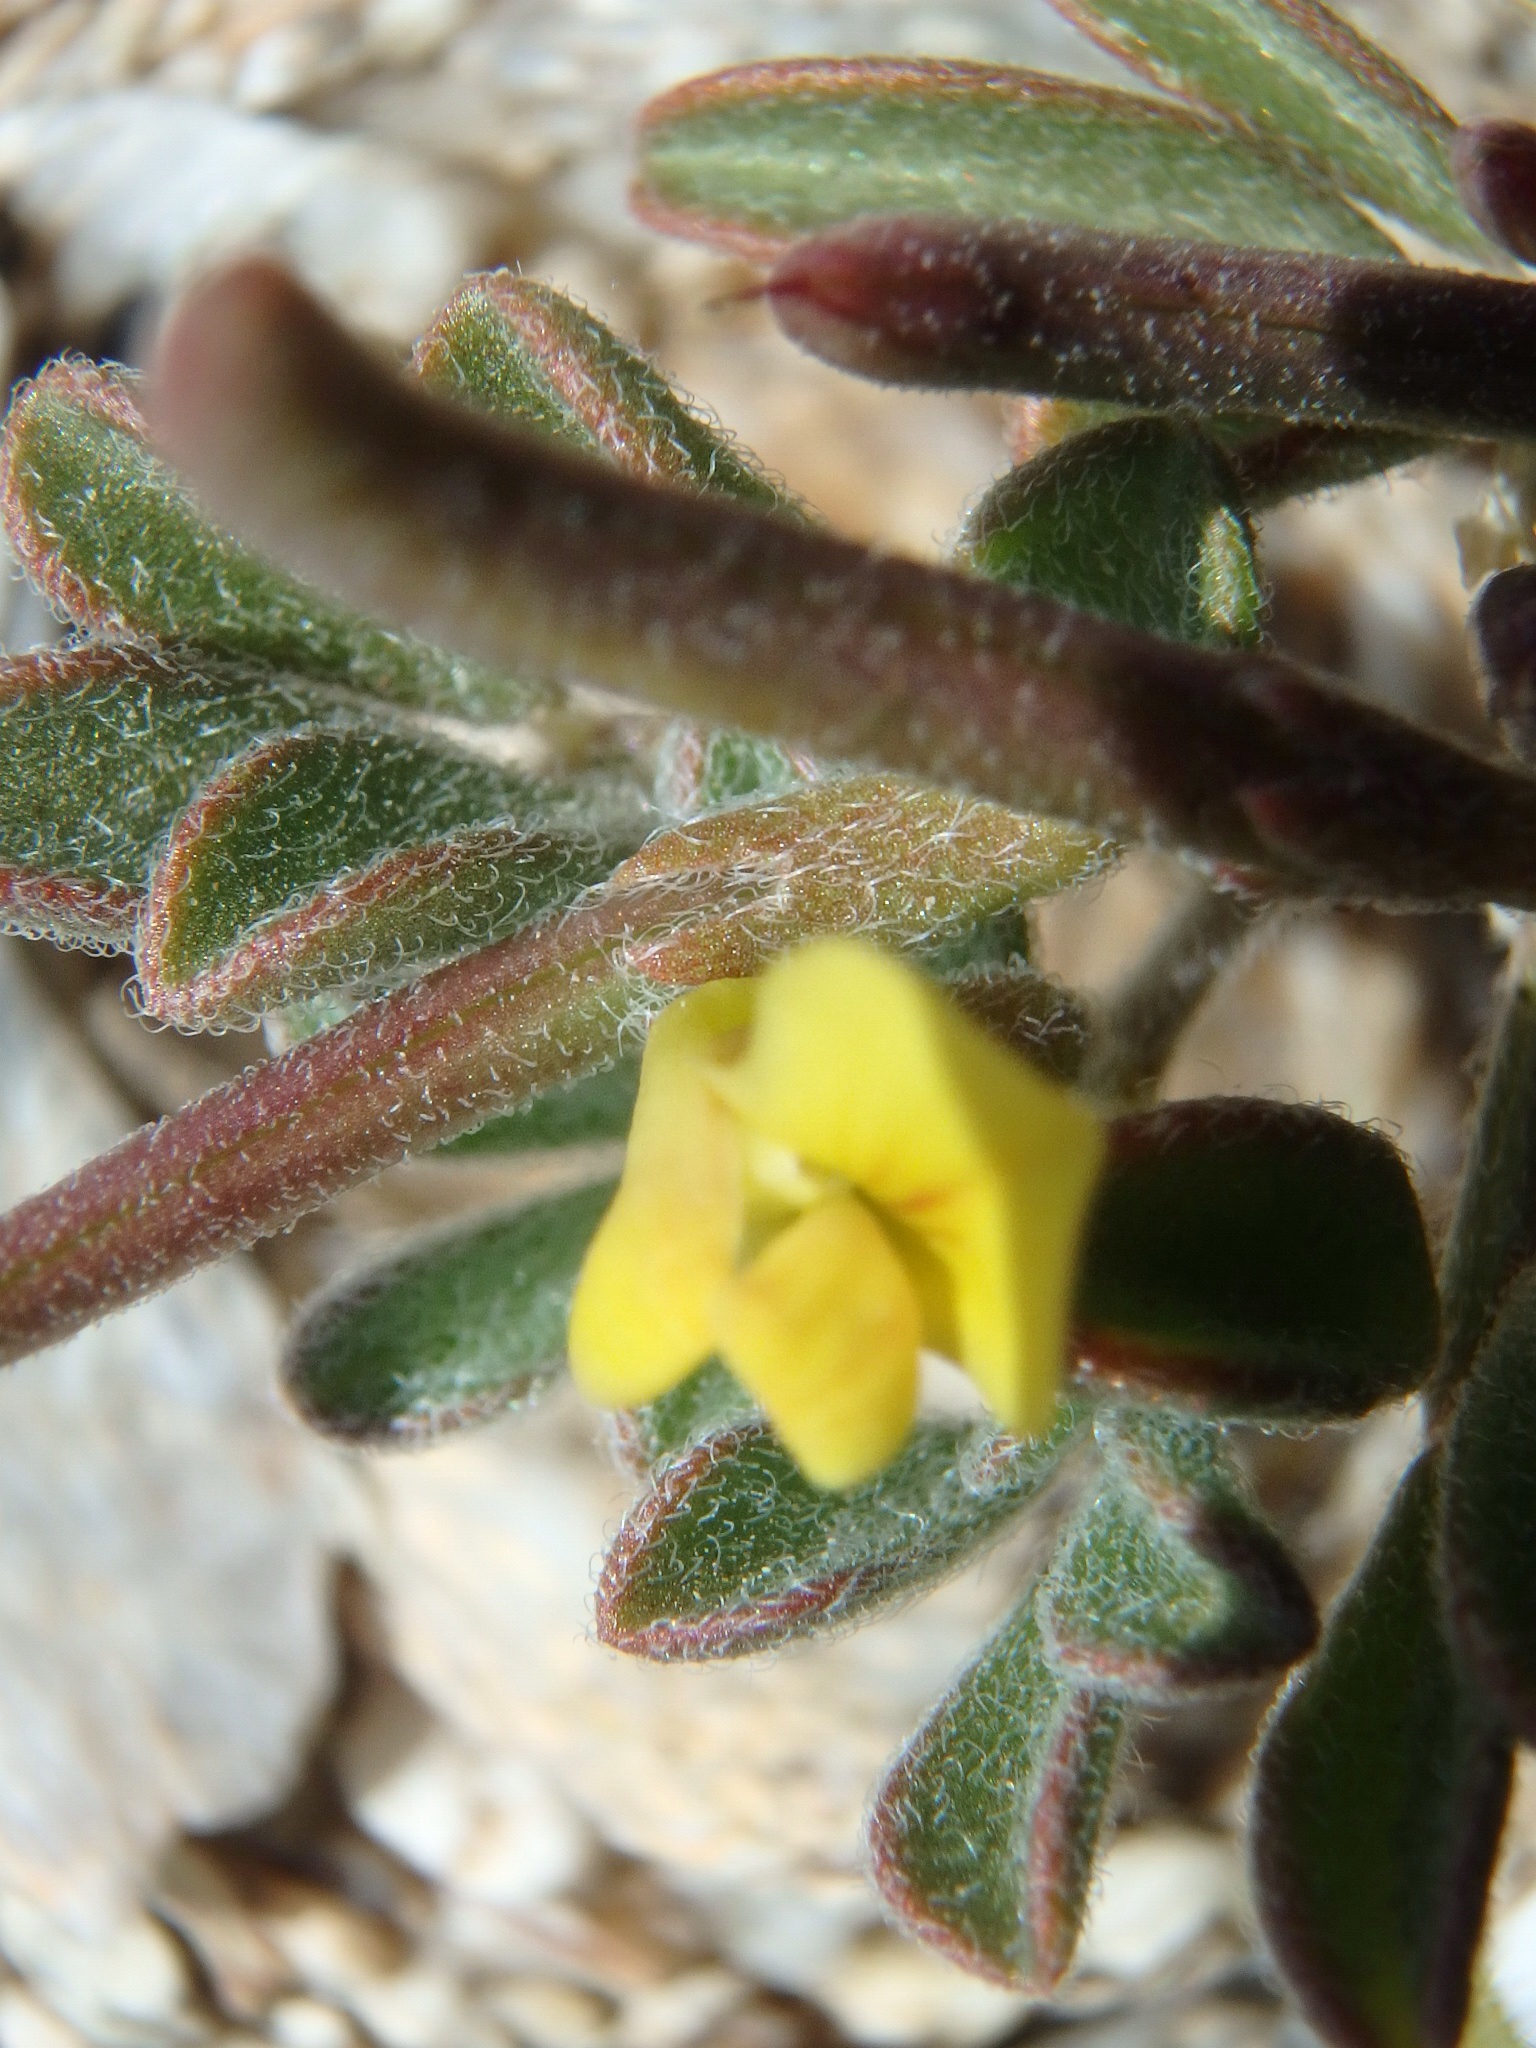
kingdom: Plantae
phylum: Tracheophyta
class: Magnoliopsida
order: Fabales
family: Fabaceae
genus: Acmispon
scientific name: Acmispon strigosus
